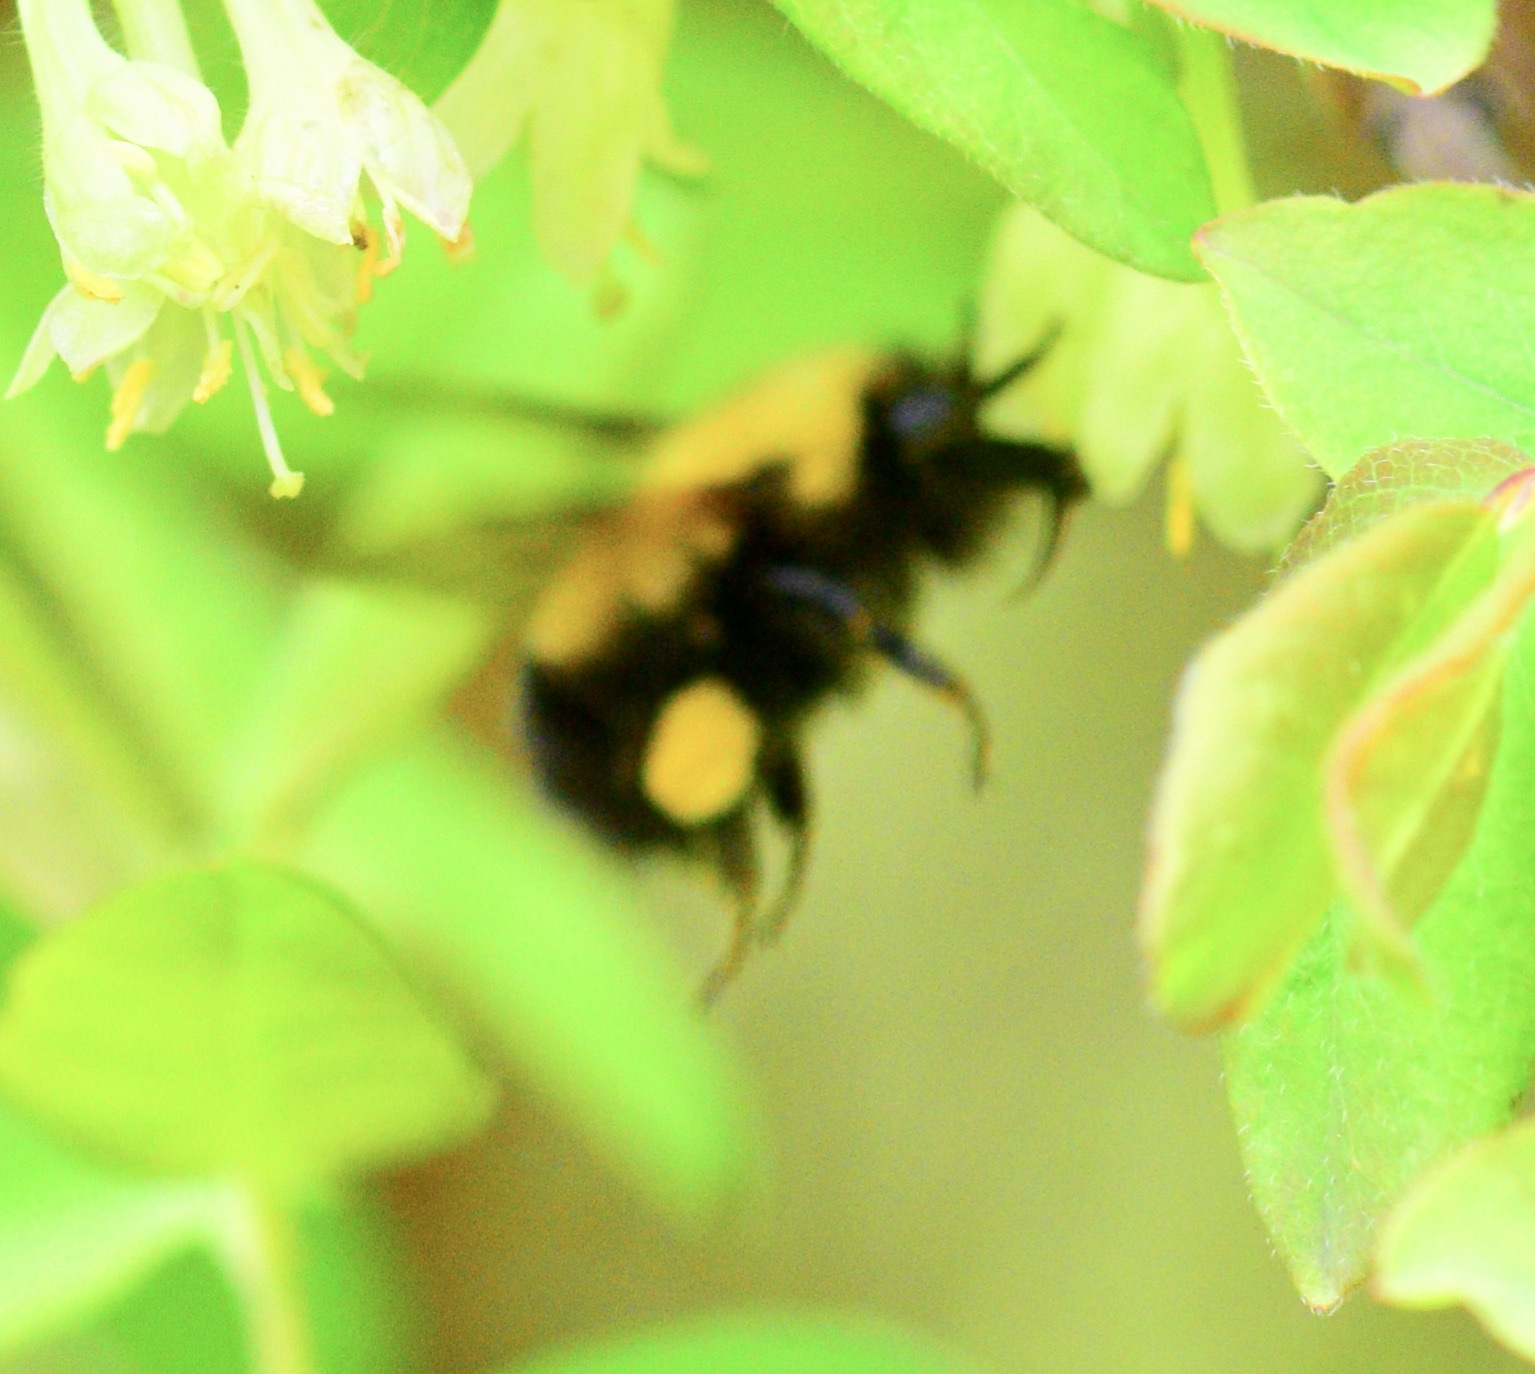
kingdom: Animalia
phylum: Arthropoda
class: Insecta
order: Hymenoptera
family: Apidae
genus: Bombus
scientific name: Bombus perplexus
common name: Confusing bumble bee
